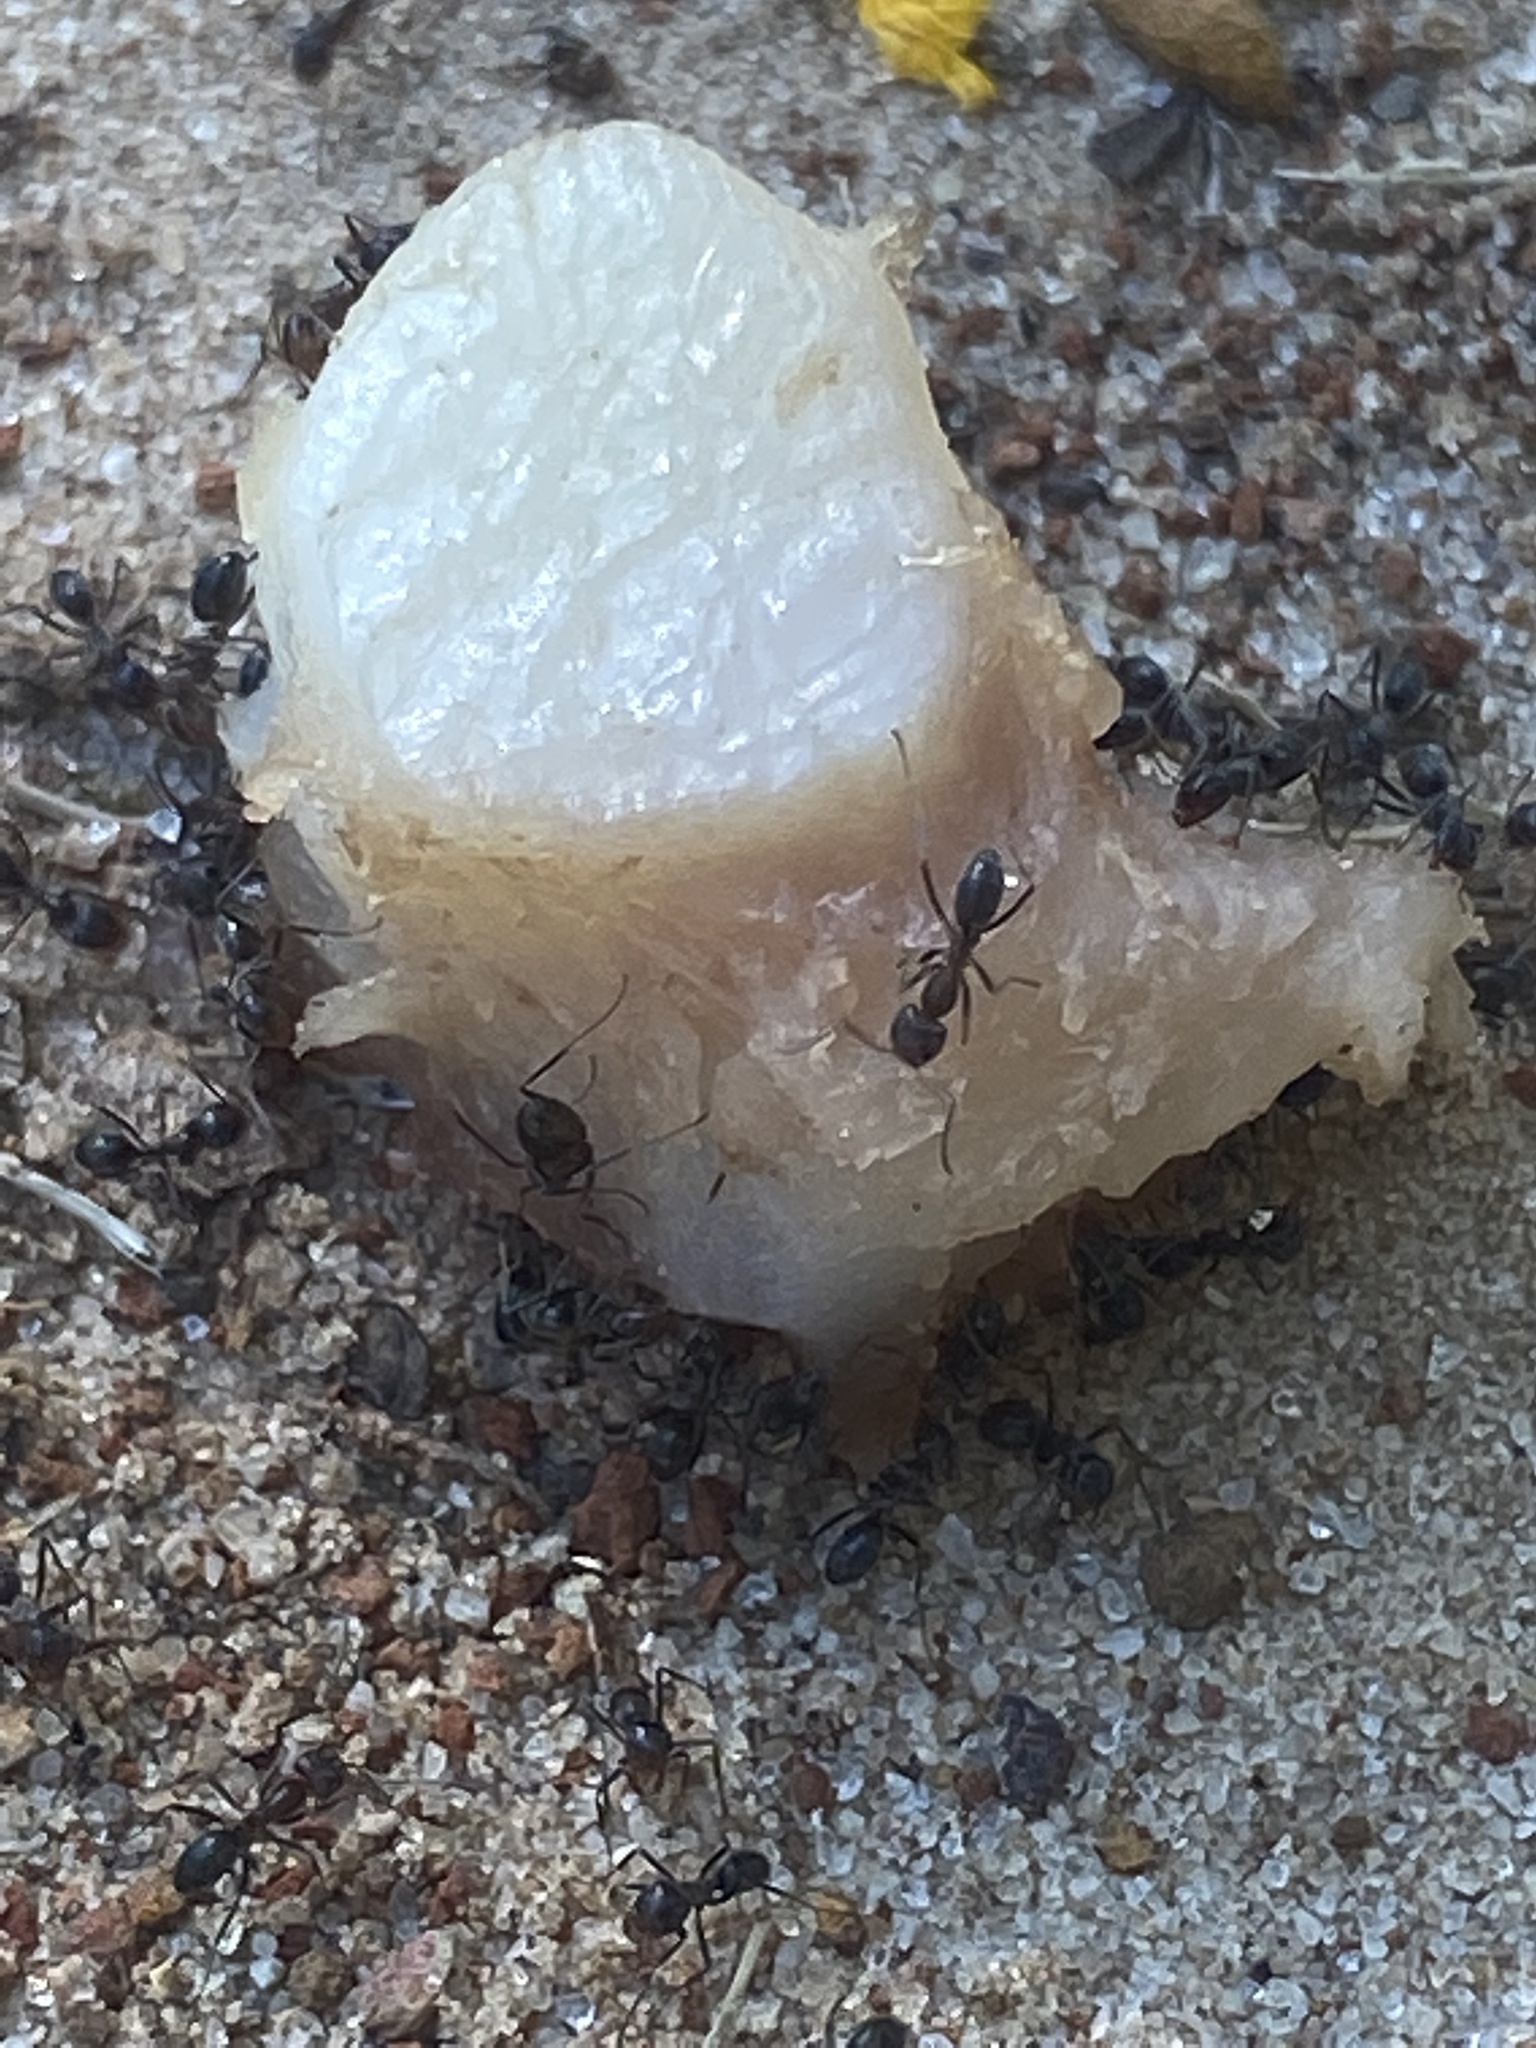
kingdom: Animalia
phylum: Arthropoda
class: Insecta
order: Hymenoptera
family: Formicidae
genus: Dorymyrmex
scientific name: Dorymyrmex
